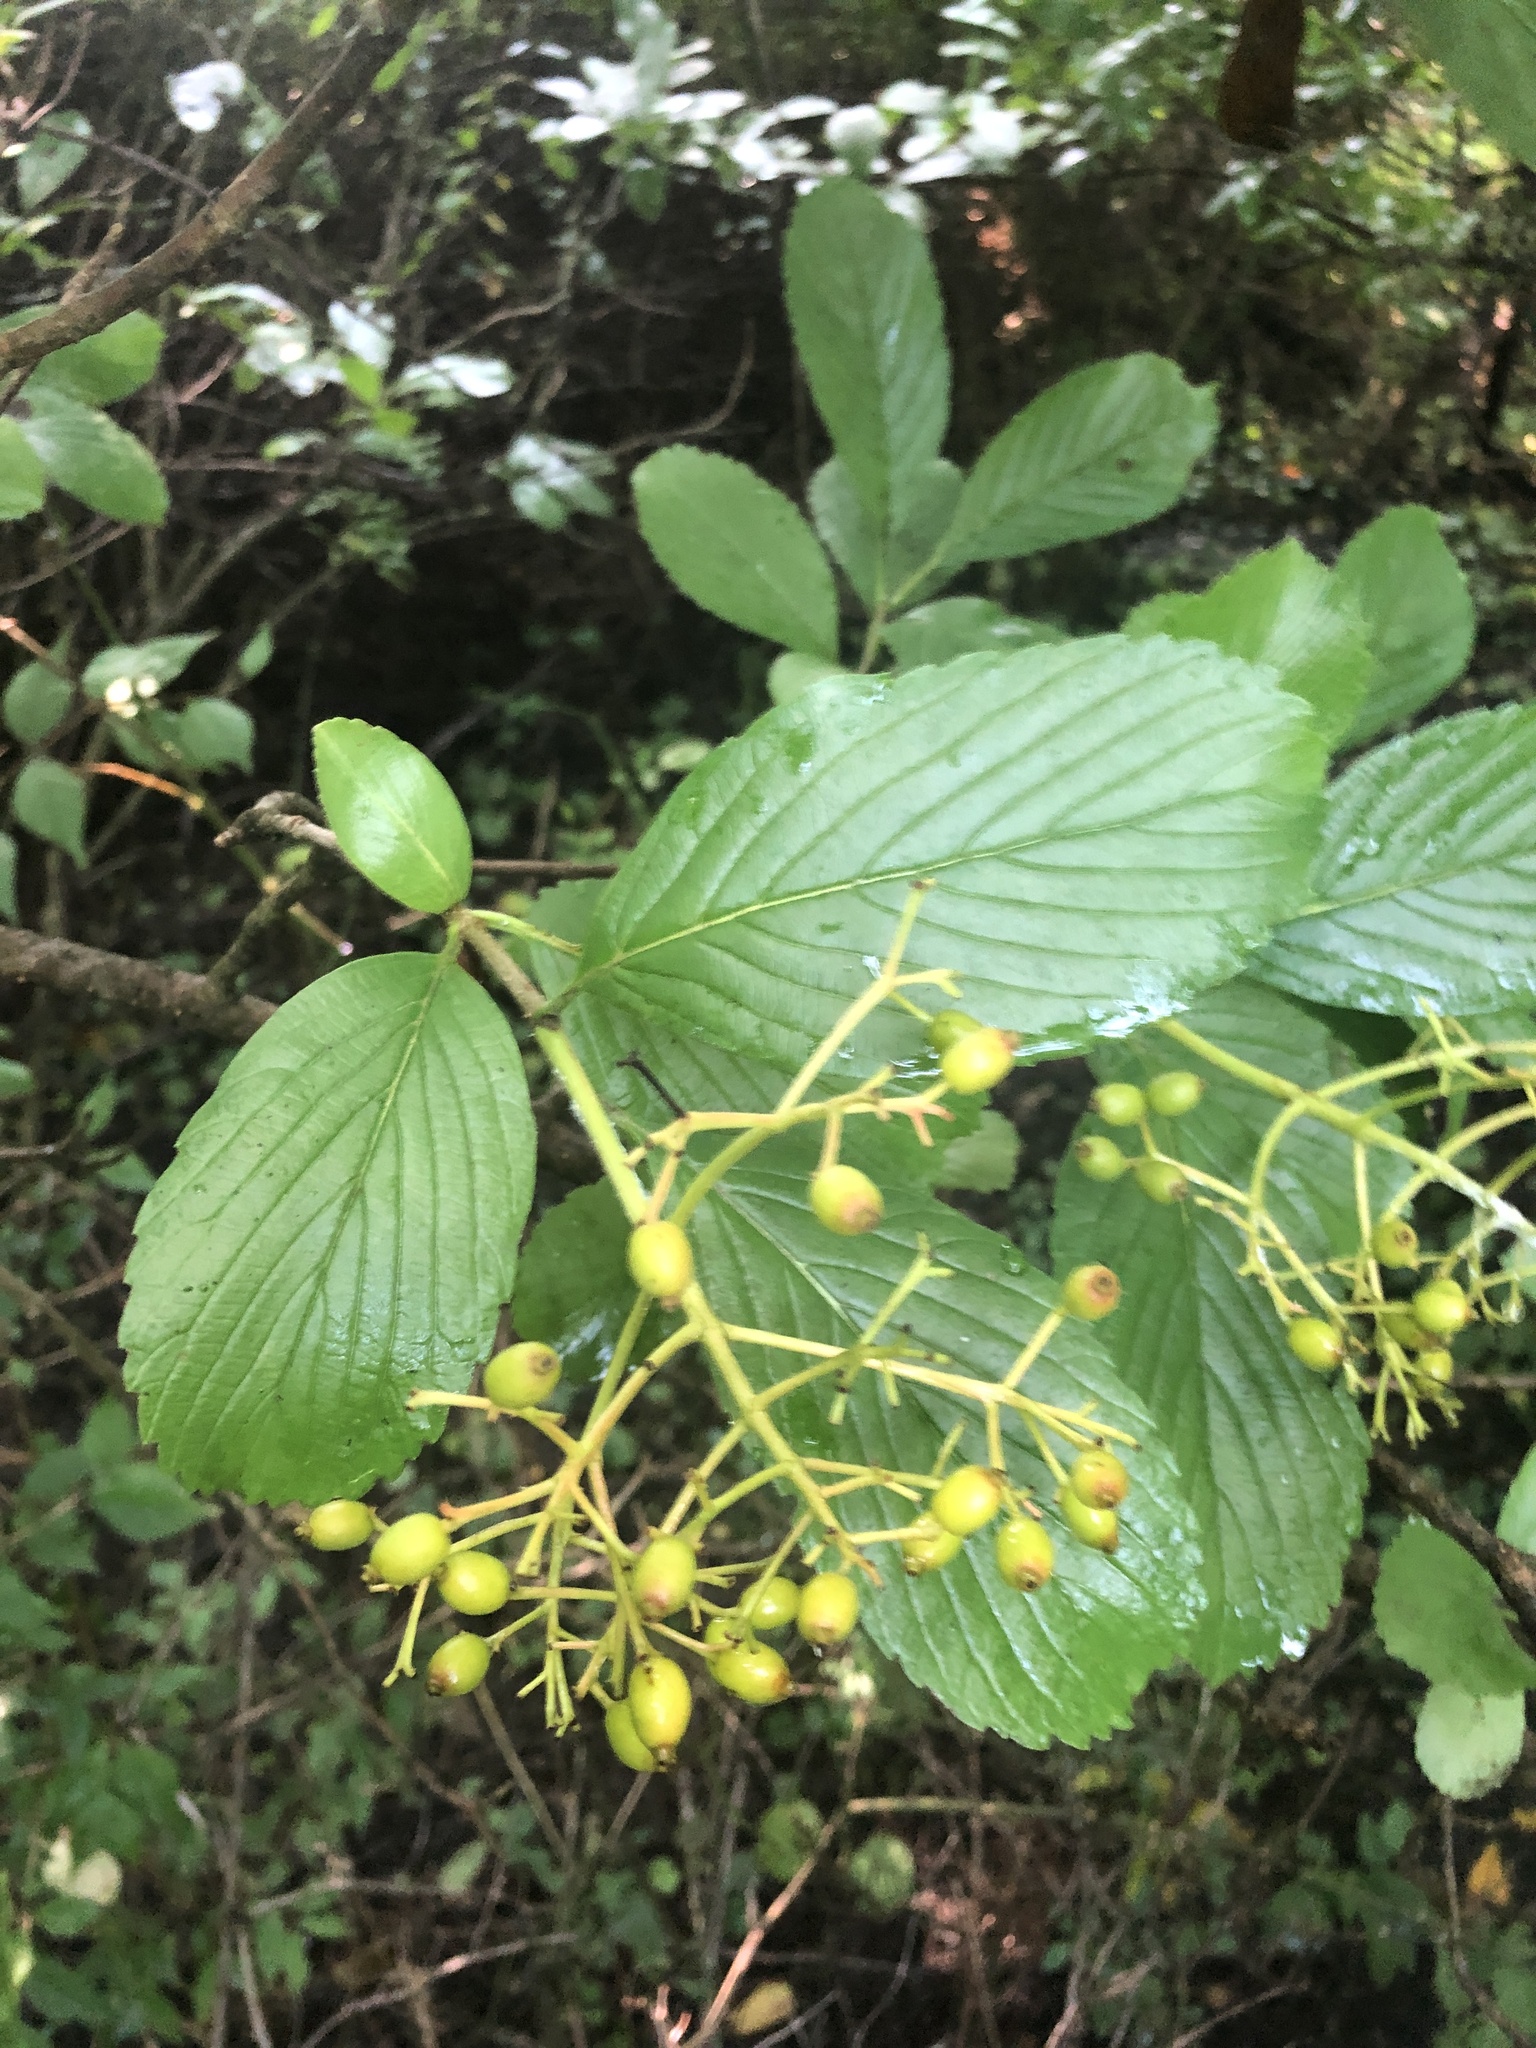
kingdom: Plantae
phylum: Tracheophyta
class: Magnoliopsida
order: Dipsacales
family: Viburnaceae
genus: Viburnum
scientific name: Viburnum sieboldii
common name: Siebold's arrowwood
